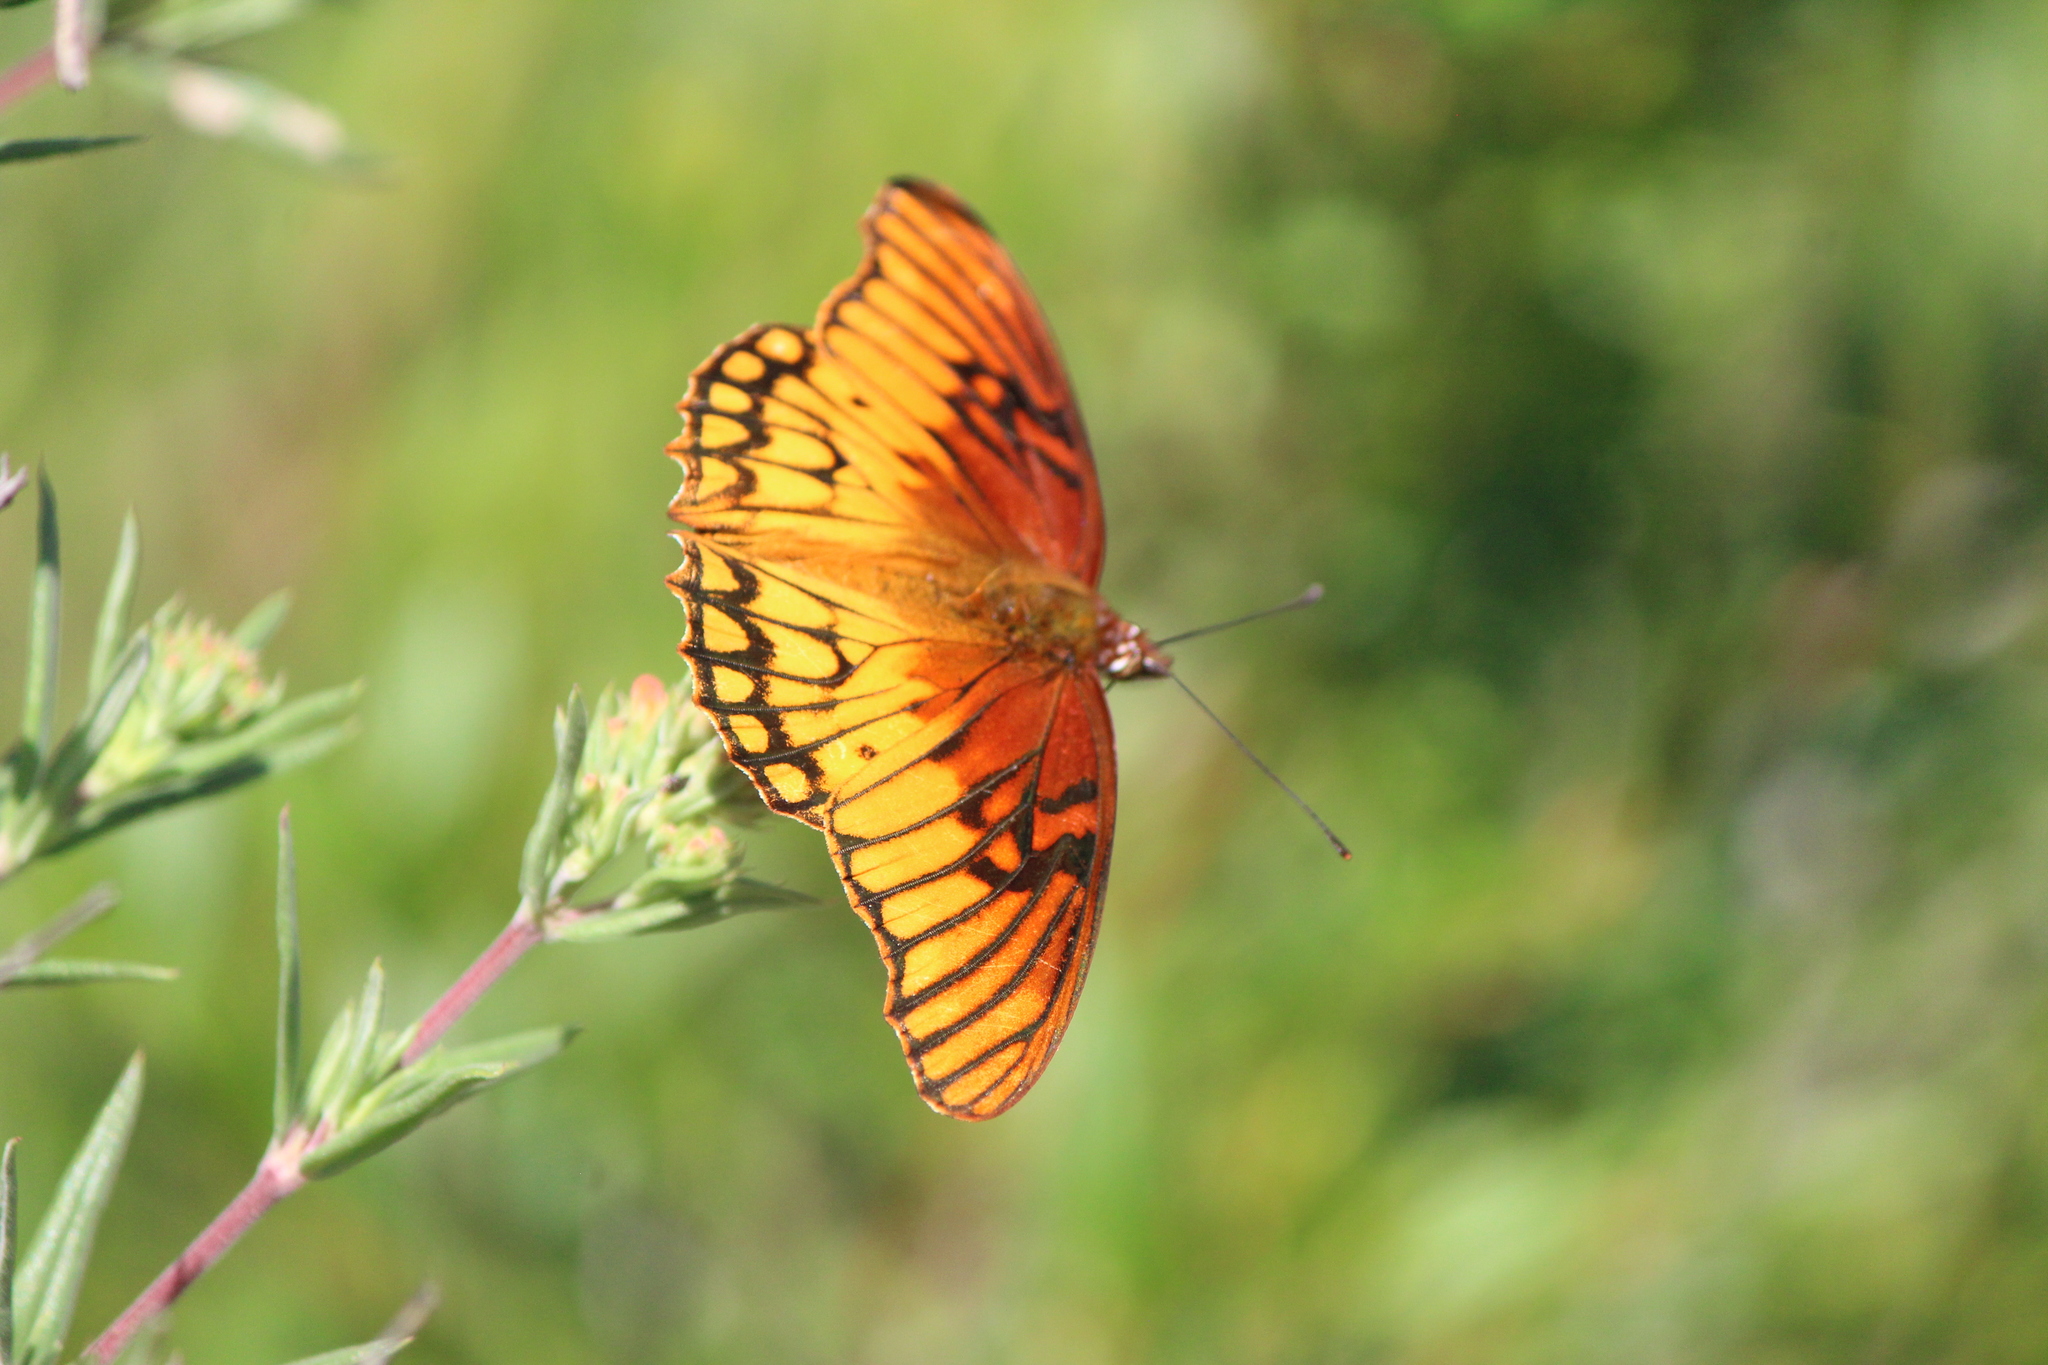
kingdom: Animalia
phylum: Arthropoda
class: Insecta
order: Lepidoptera
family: Nymphalidae
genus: Dione
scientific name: Dione moneta
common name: Mexican silverspot
